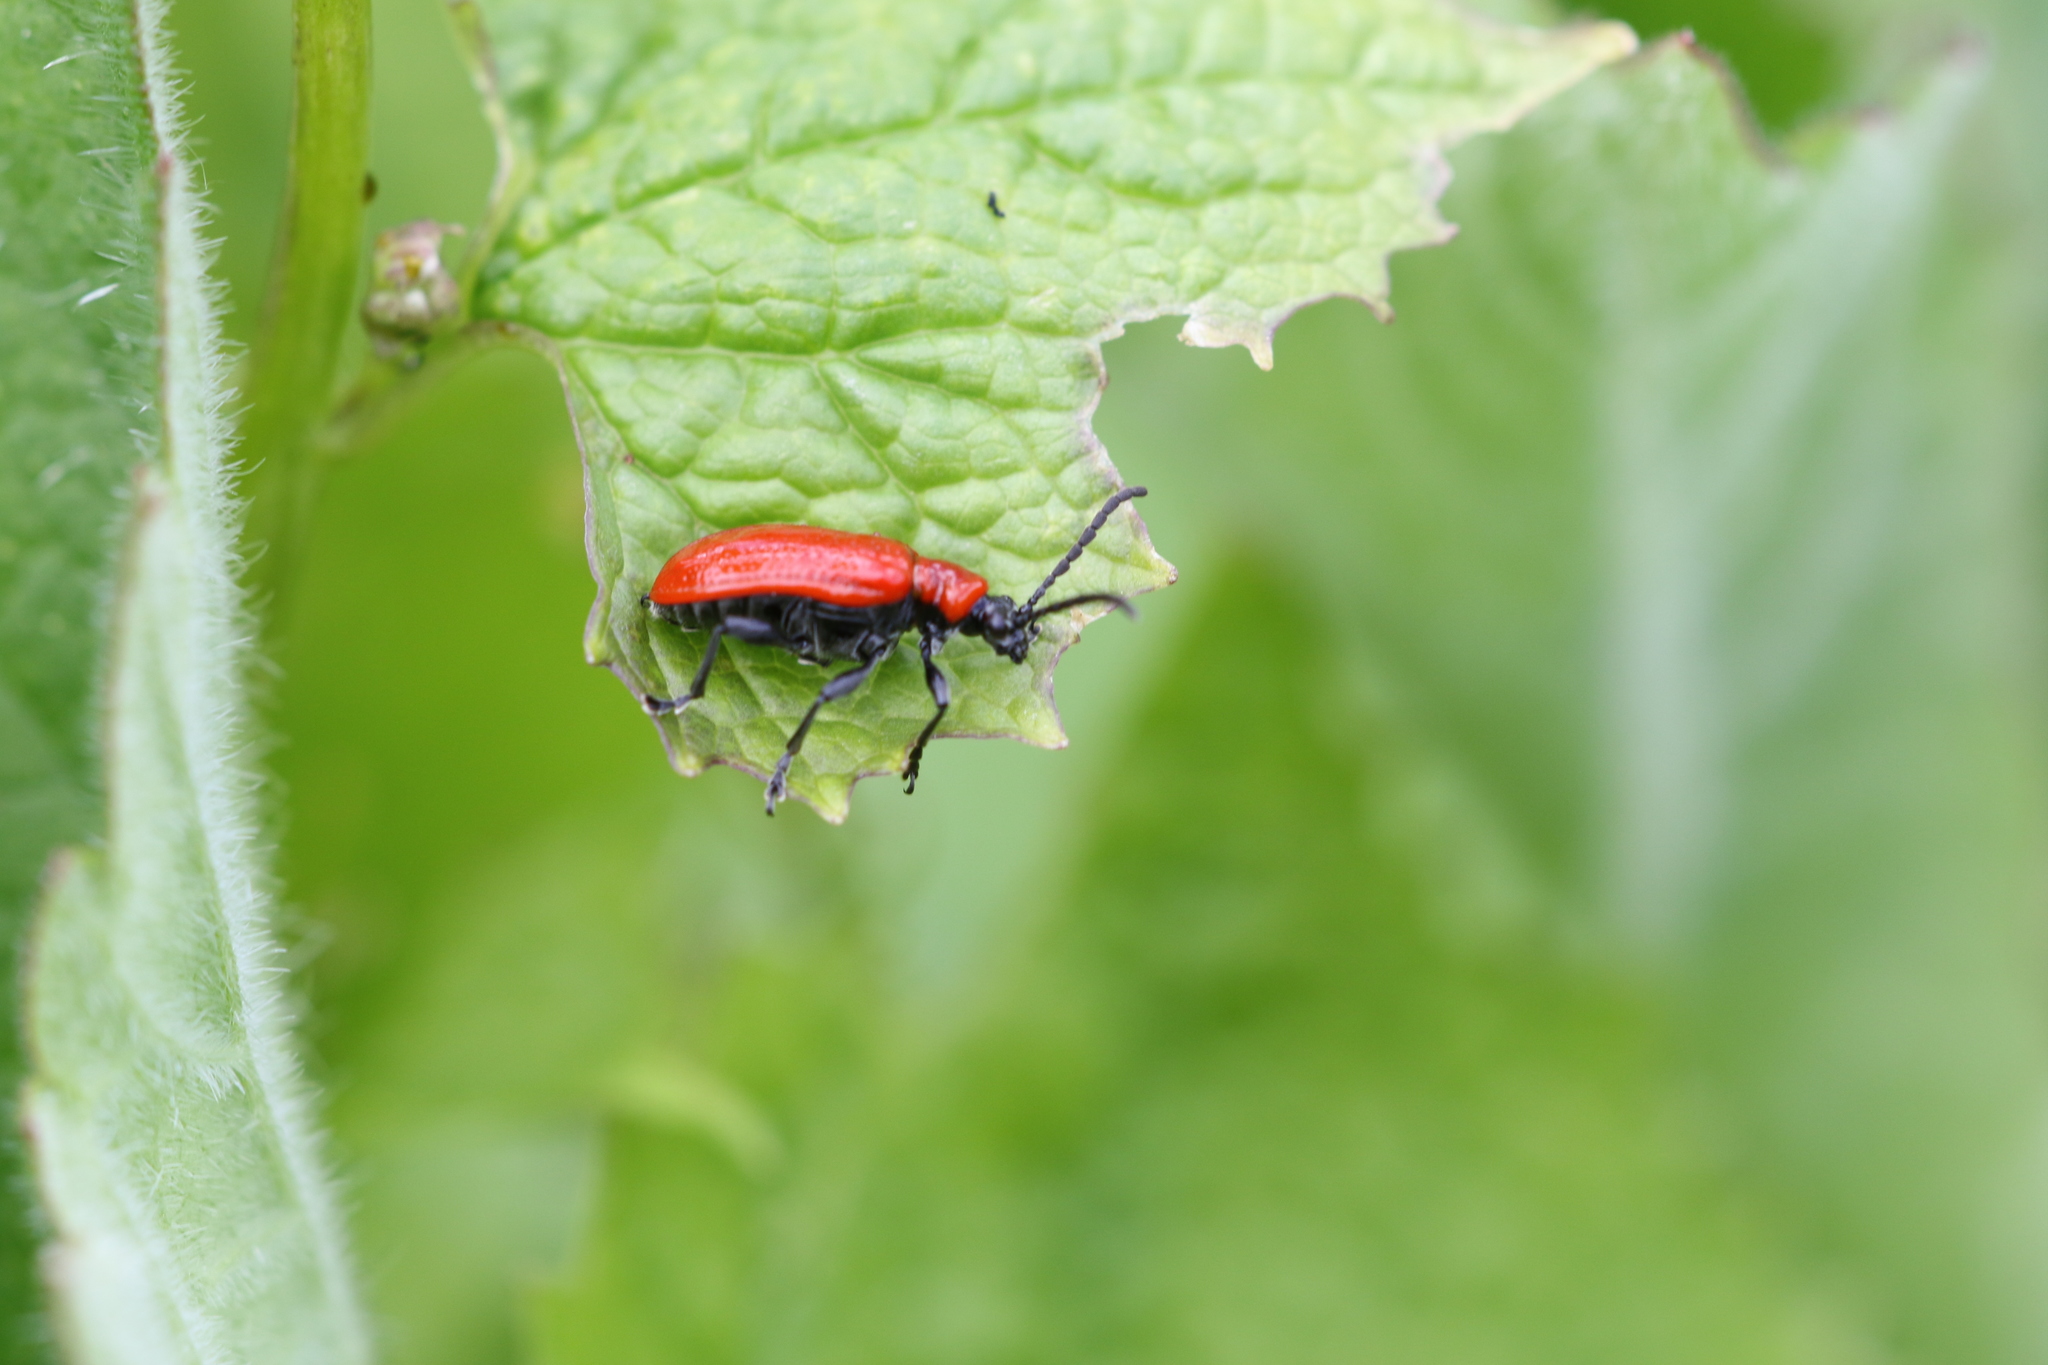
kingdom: Animalia
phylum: Arthropoda
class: Insecta
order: Coleoptera
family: Chrysomelidae
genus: Lilioceris
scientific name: Lilioceris lilii
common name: Lily beetle
